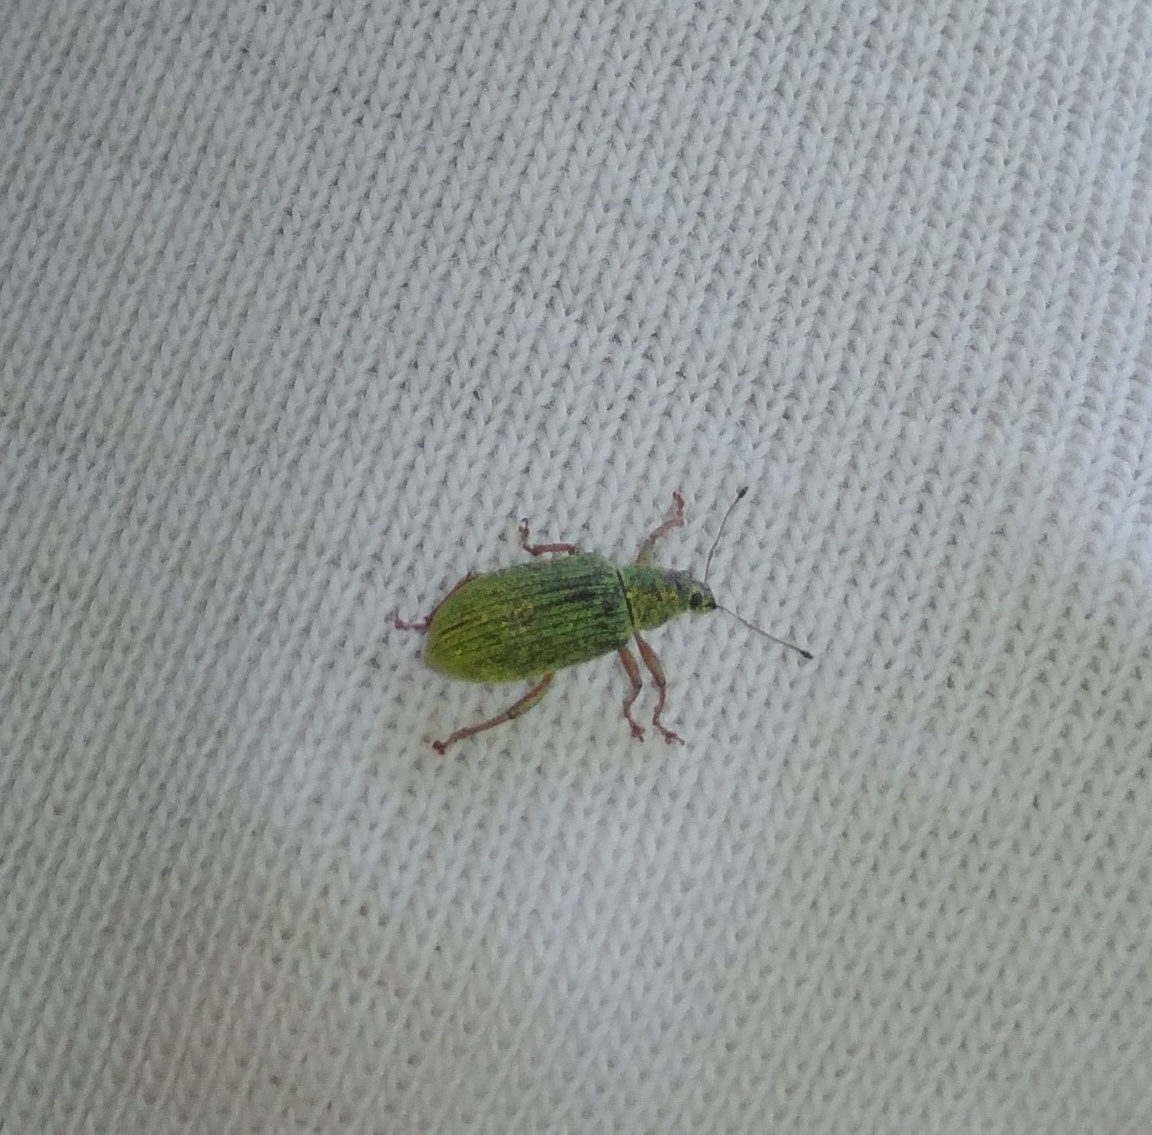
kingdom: Animalia
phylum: Arthropoda
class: Insecta
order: Coleoptera
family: Curculionidae
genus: Polydrusus
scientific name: Polydrusus formosus
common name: Weevil
